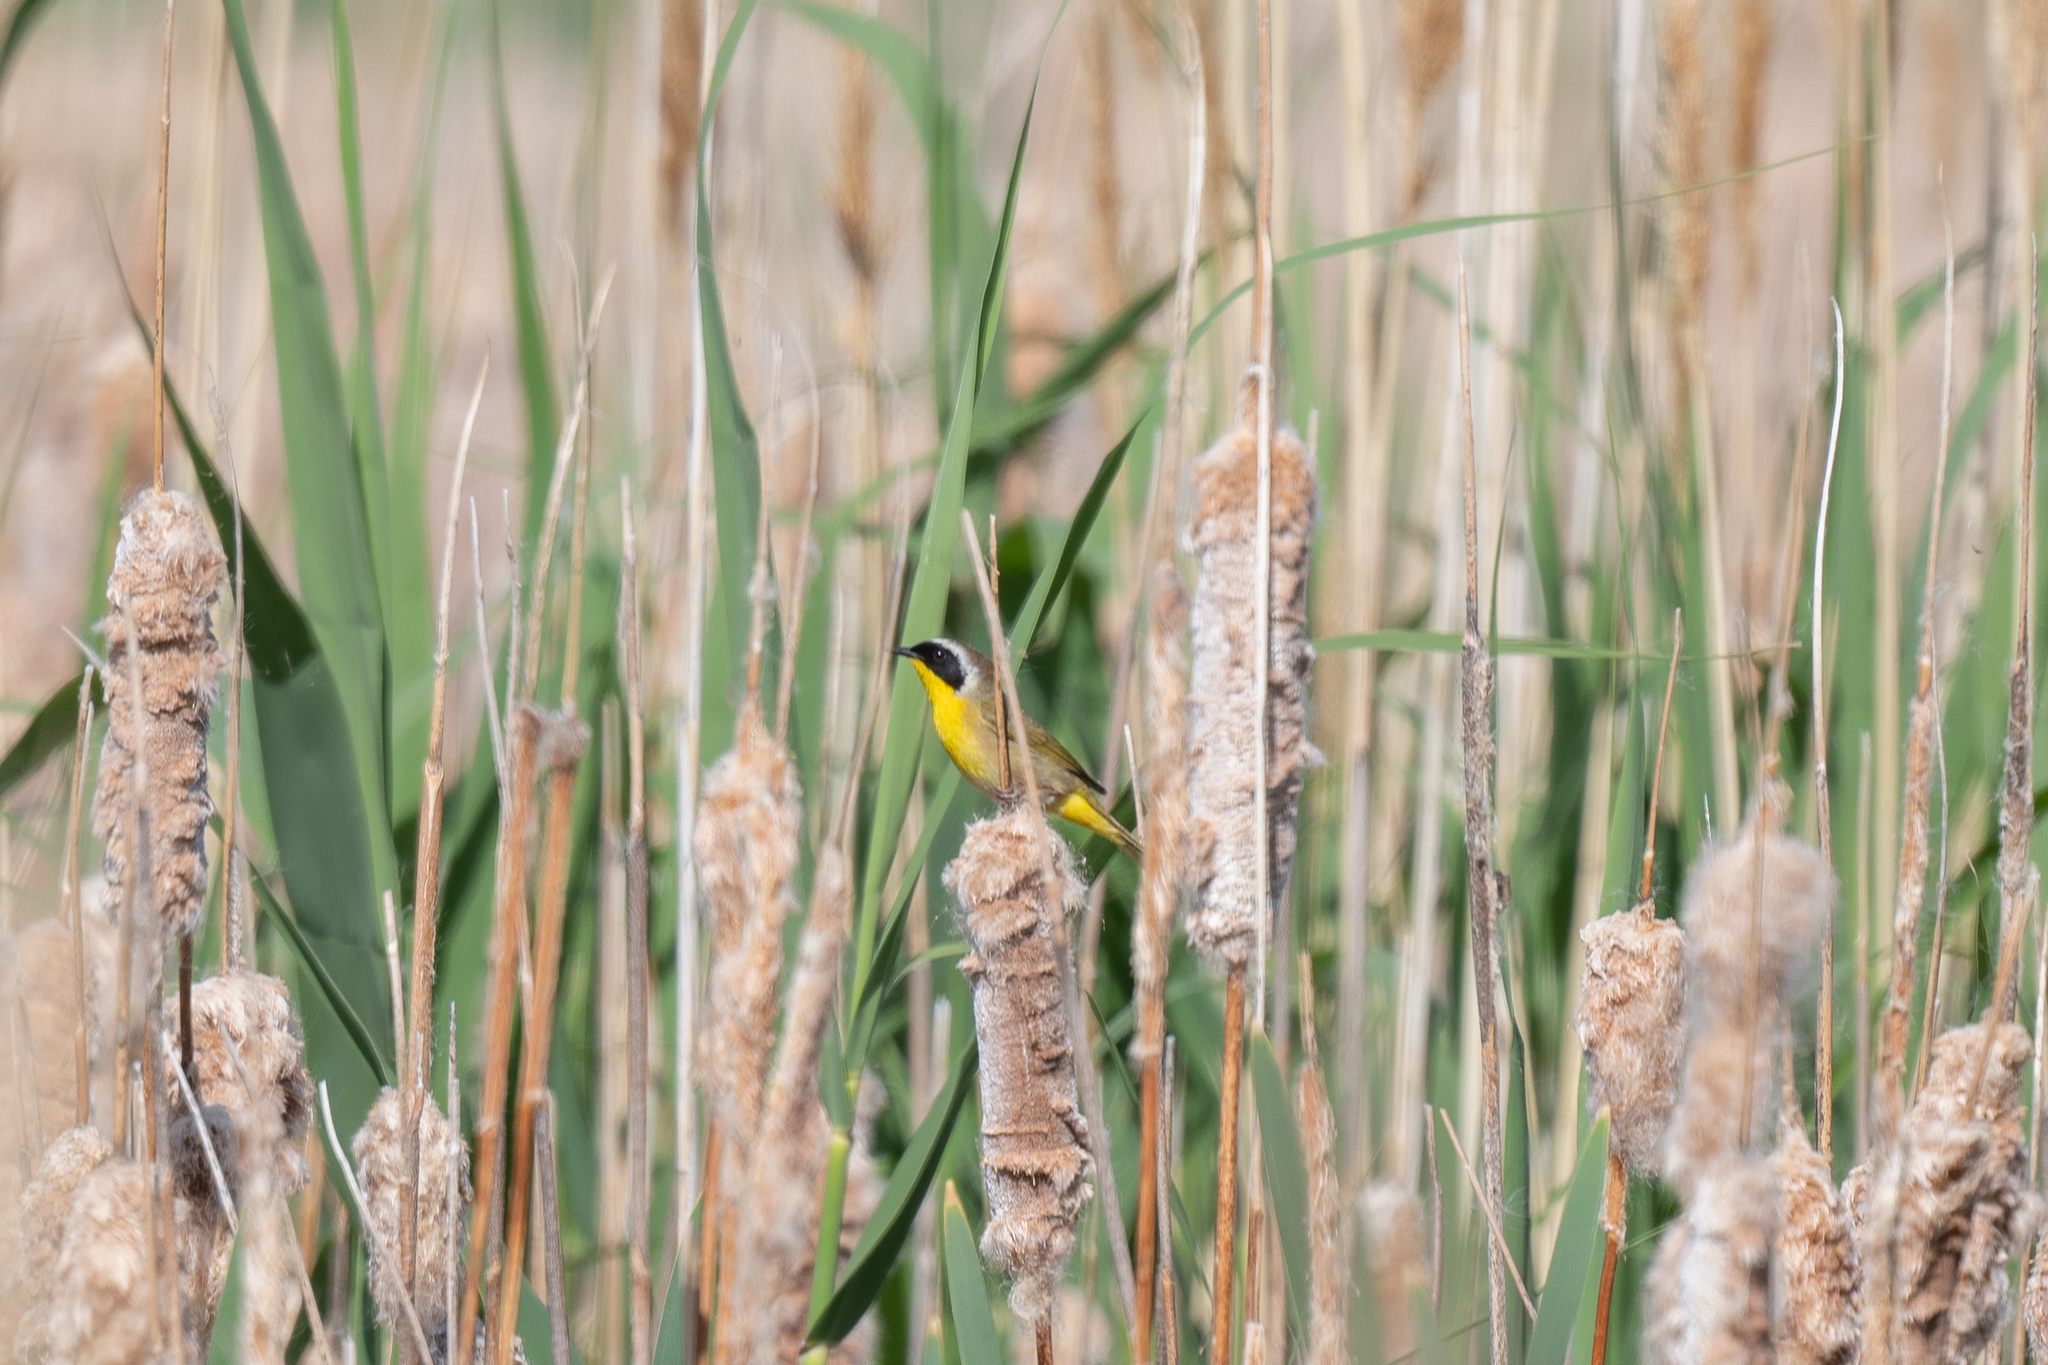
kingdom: Animalia
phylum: Chordata
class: Aves
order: Passeriformes
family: Parulidae
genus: Geothlypis
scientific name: Geothlypis trichas
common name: Common yellowthroat
